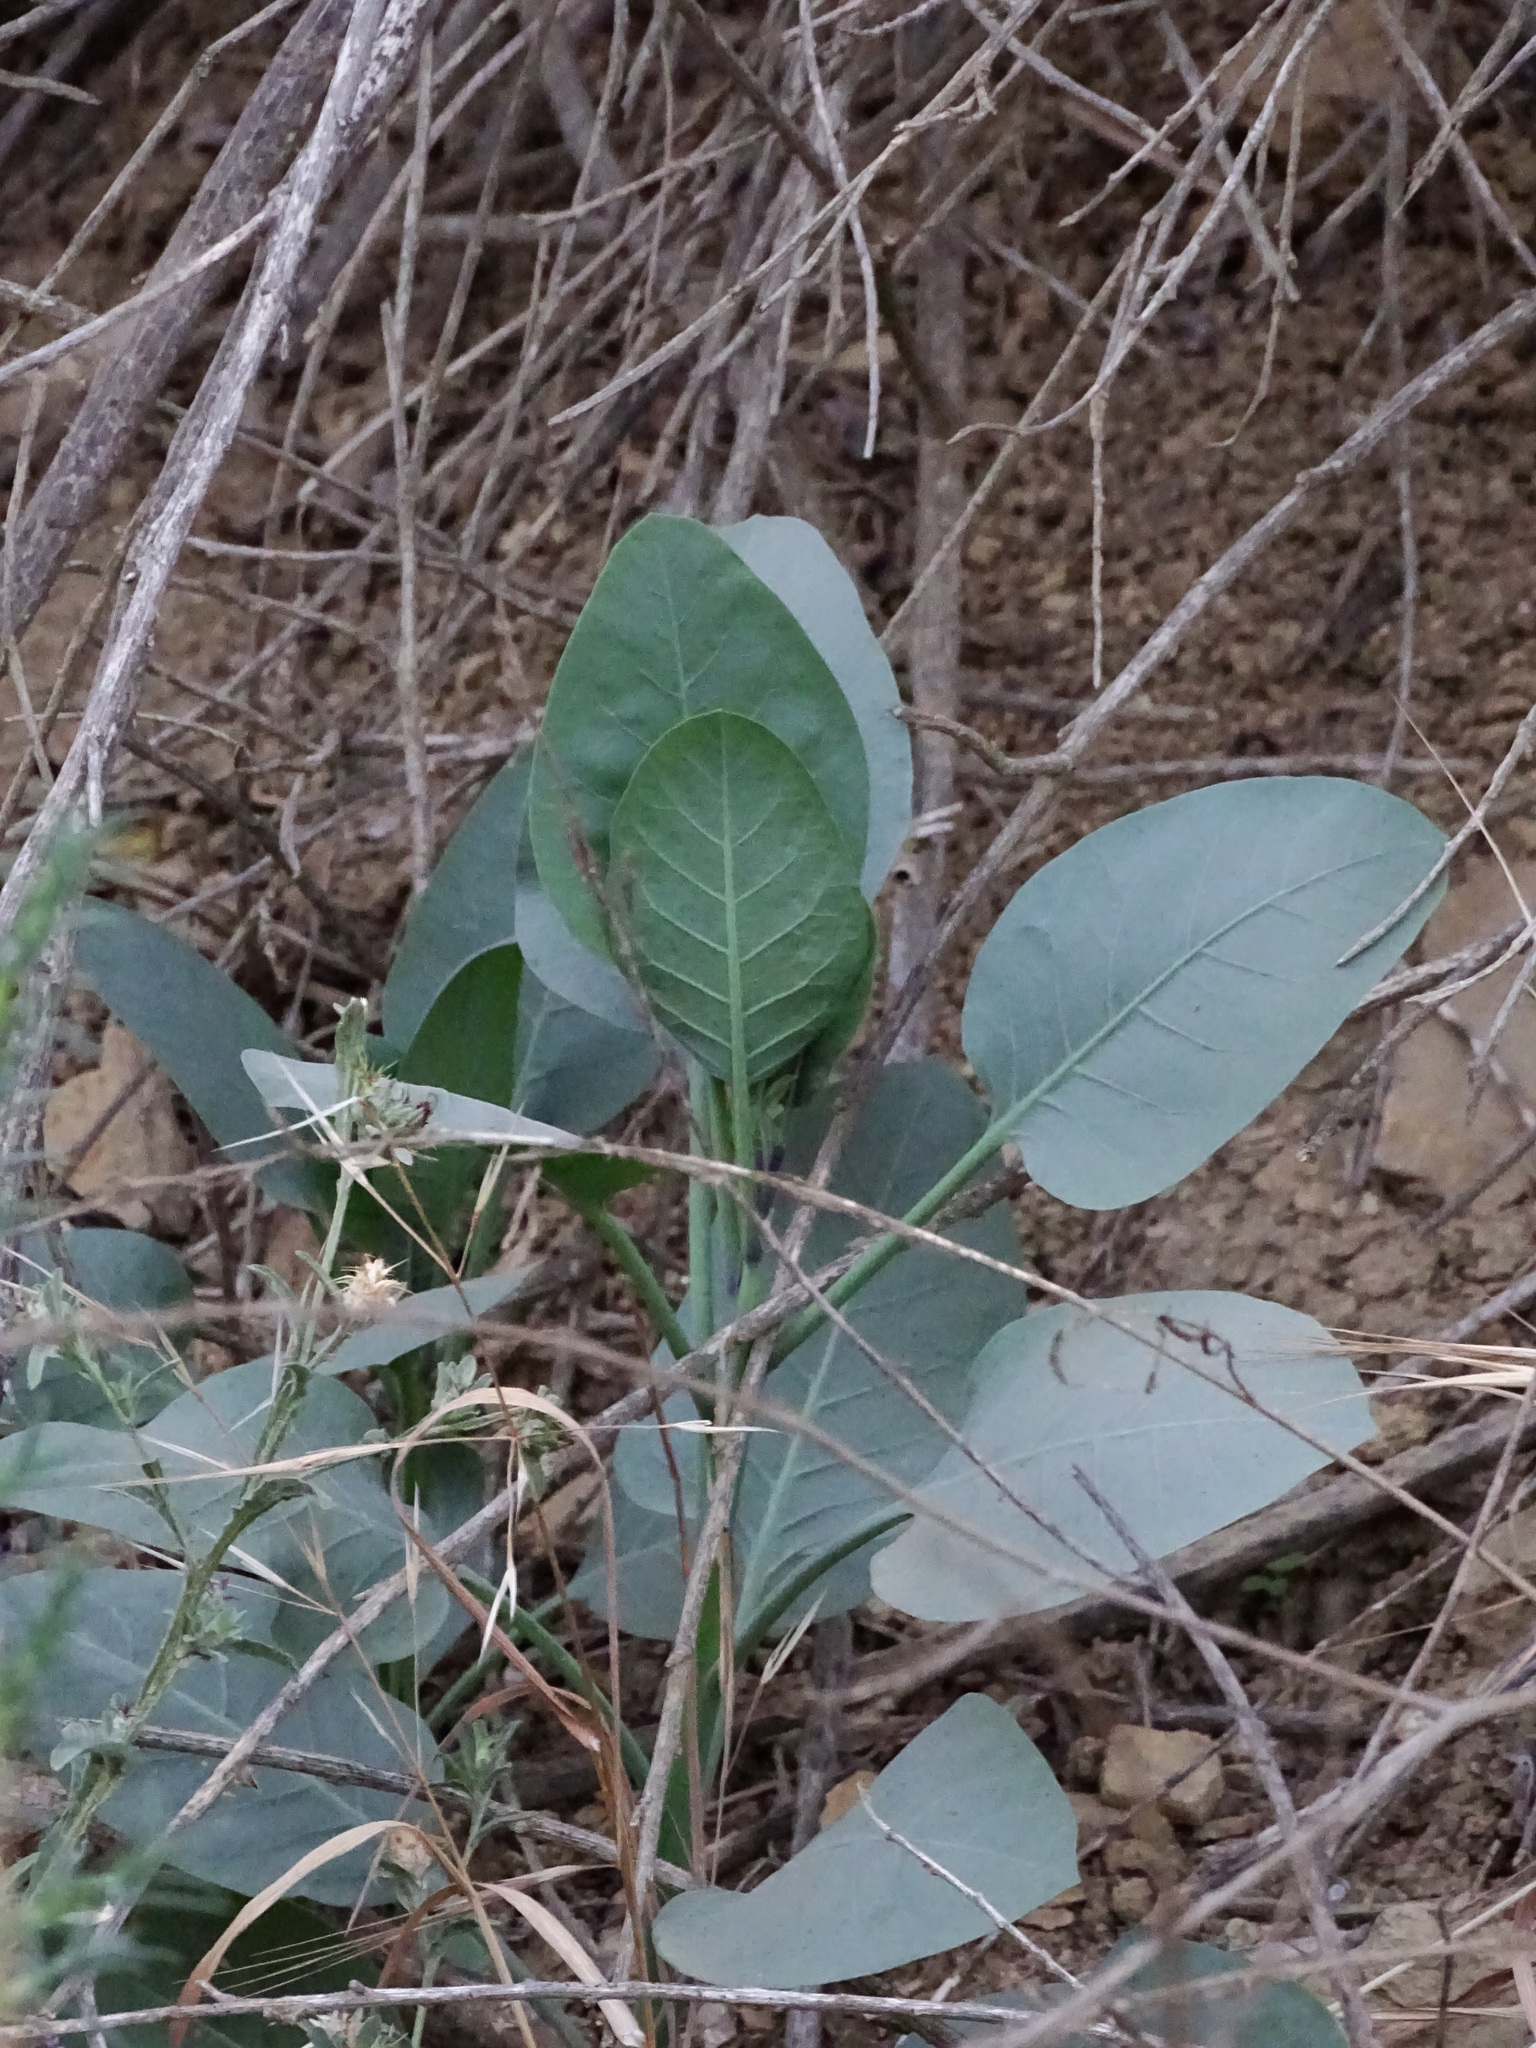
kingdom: Plantae
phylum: Tracheophyta
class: Magnoliopsida
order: Solanales
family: Solanaceae
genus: Nicotiana
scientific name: Nicotiana glauca
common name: Tree tobacco
